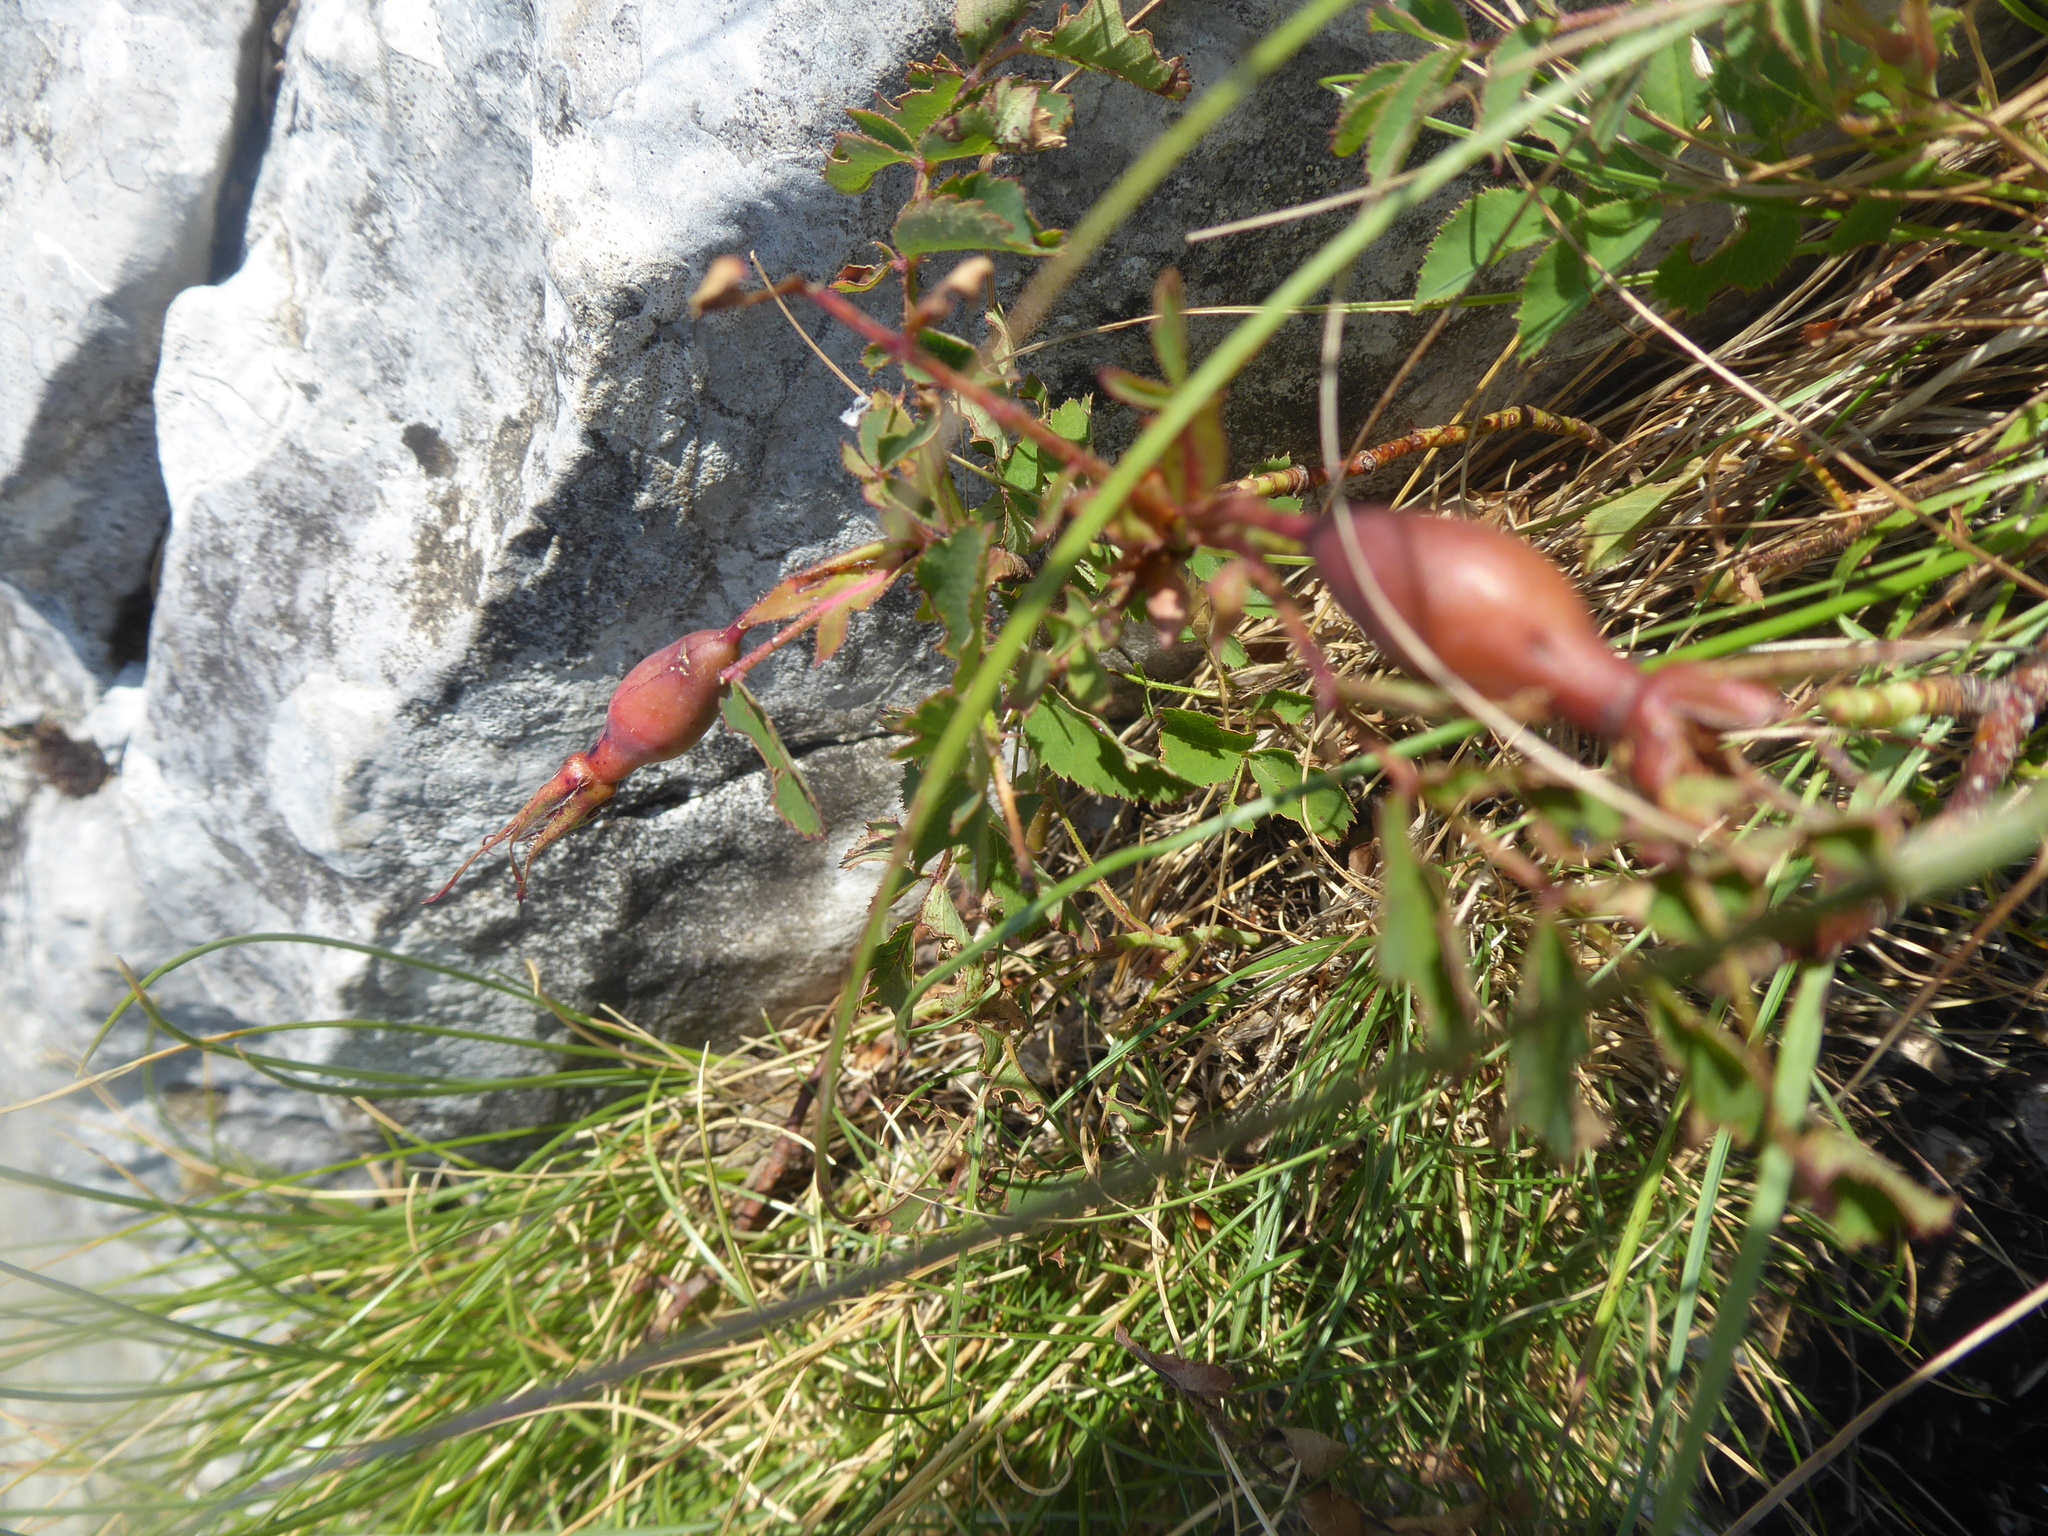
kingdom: Plantae
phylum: Tracheophyta
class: Magnoliopsida
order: Rosales
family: Rosaceae
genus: Rosa
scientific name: Rosa pendulina
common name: Alpine rose
